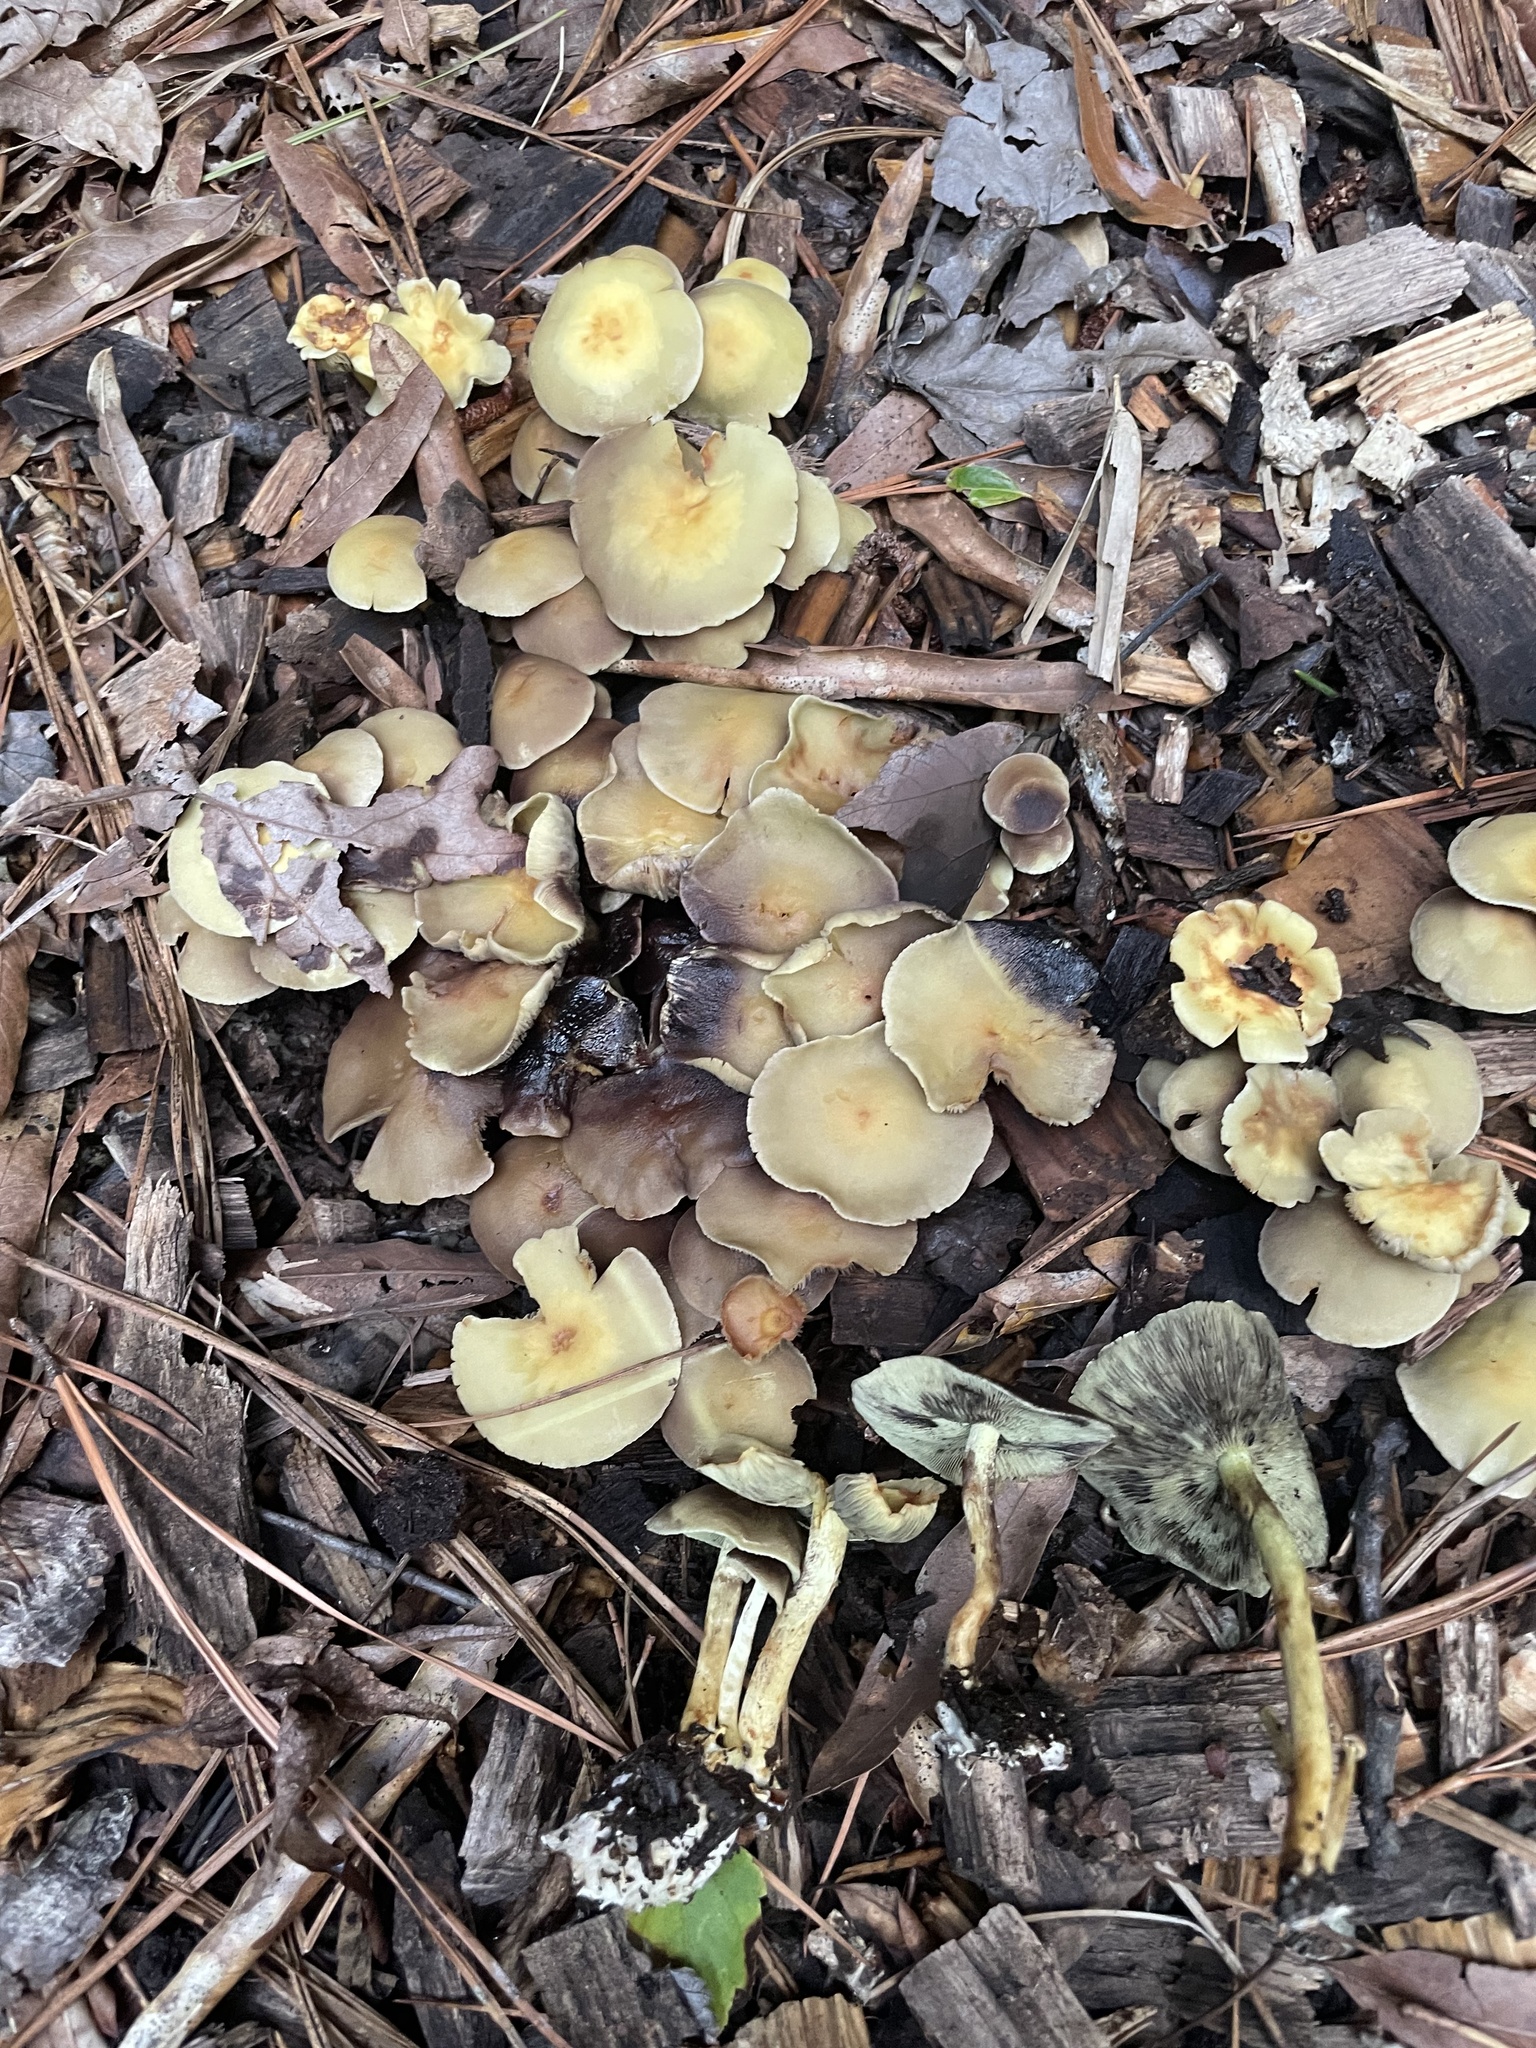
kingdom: Fungi
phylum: Basidiomycota
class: Agaricomycetes
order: Agaricales
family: Strophariaceae
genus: Hypholoma
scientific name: Hypholoma fasciculare
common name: Sulphur tuft
